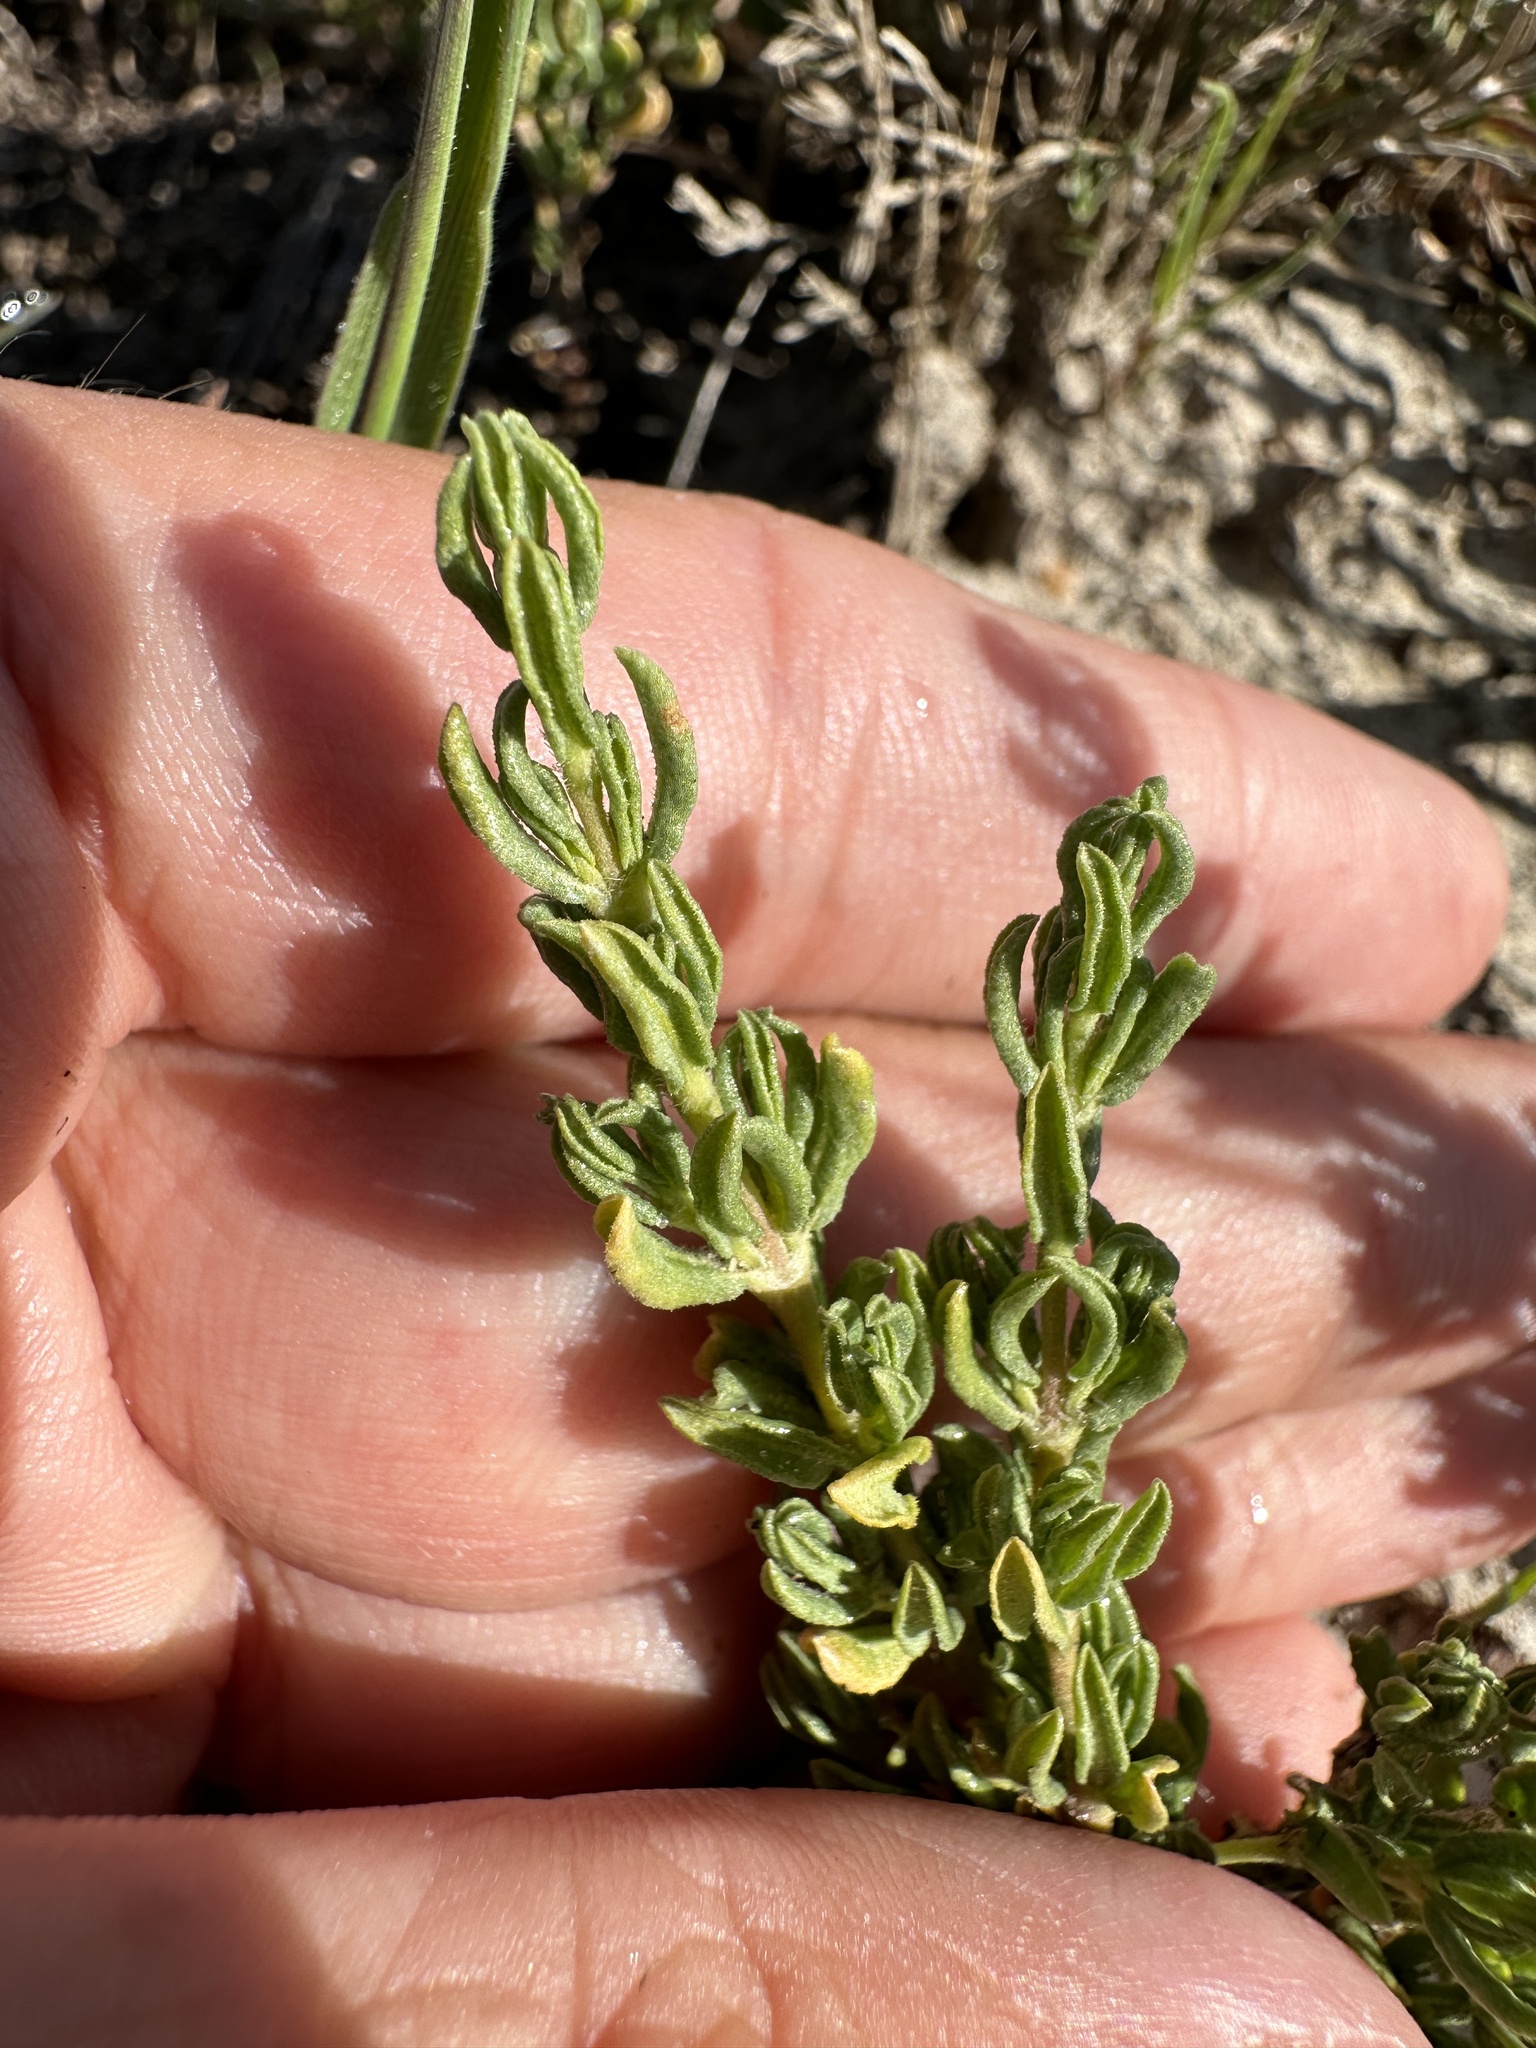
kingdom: Plantae
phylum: Tracheophyta
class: Magnoliopsida
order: Caryophyllales
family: Frankeniaceae
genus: Frankenia
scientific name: Frankenia salina
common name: Alkali seaheath
